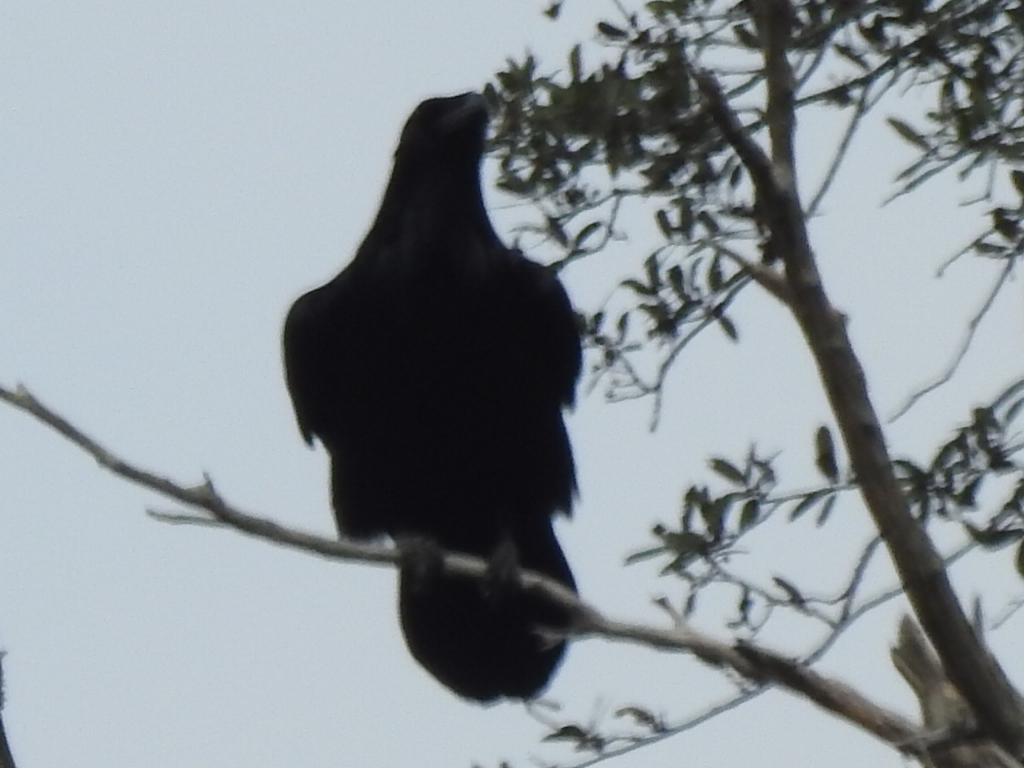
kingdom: Animalia
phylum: Chordata
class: Aves
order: Passeriformes
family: Corvidae
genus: Corvus
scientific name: Corvus corax
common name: Common raven
